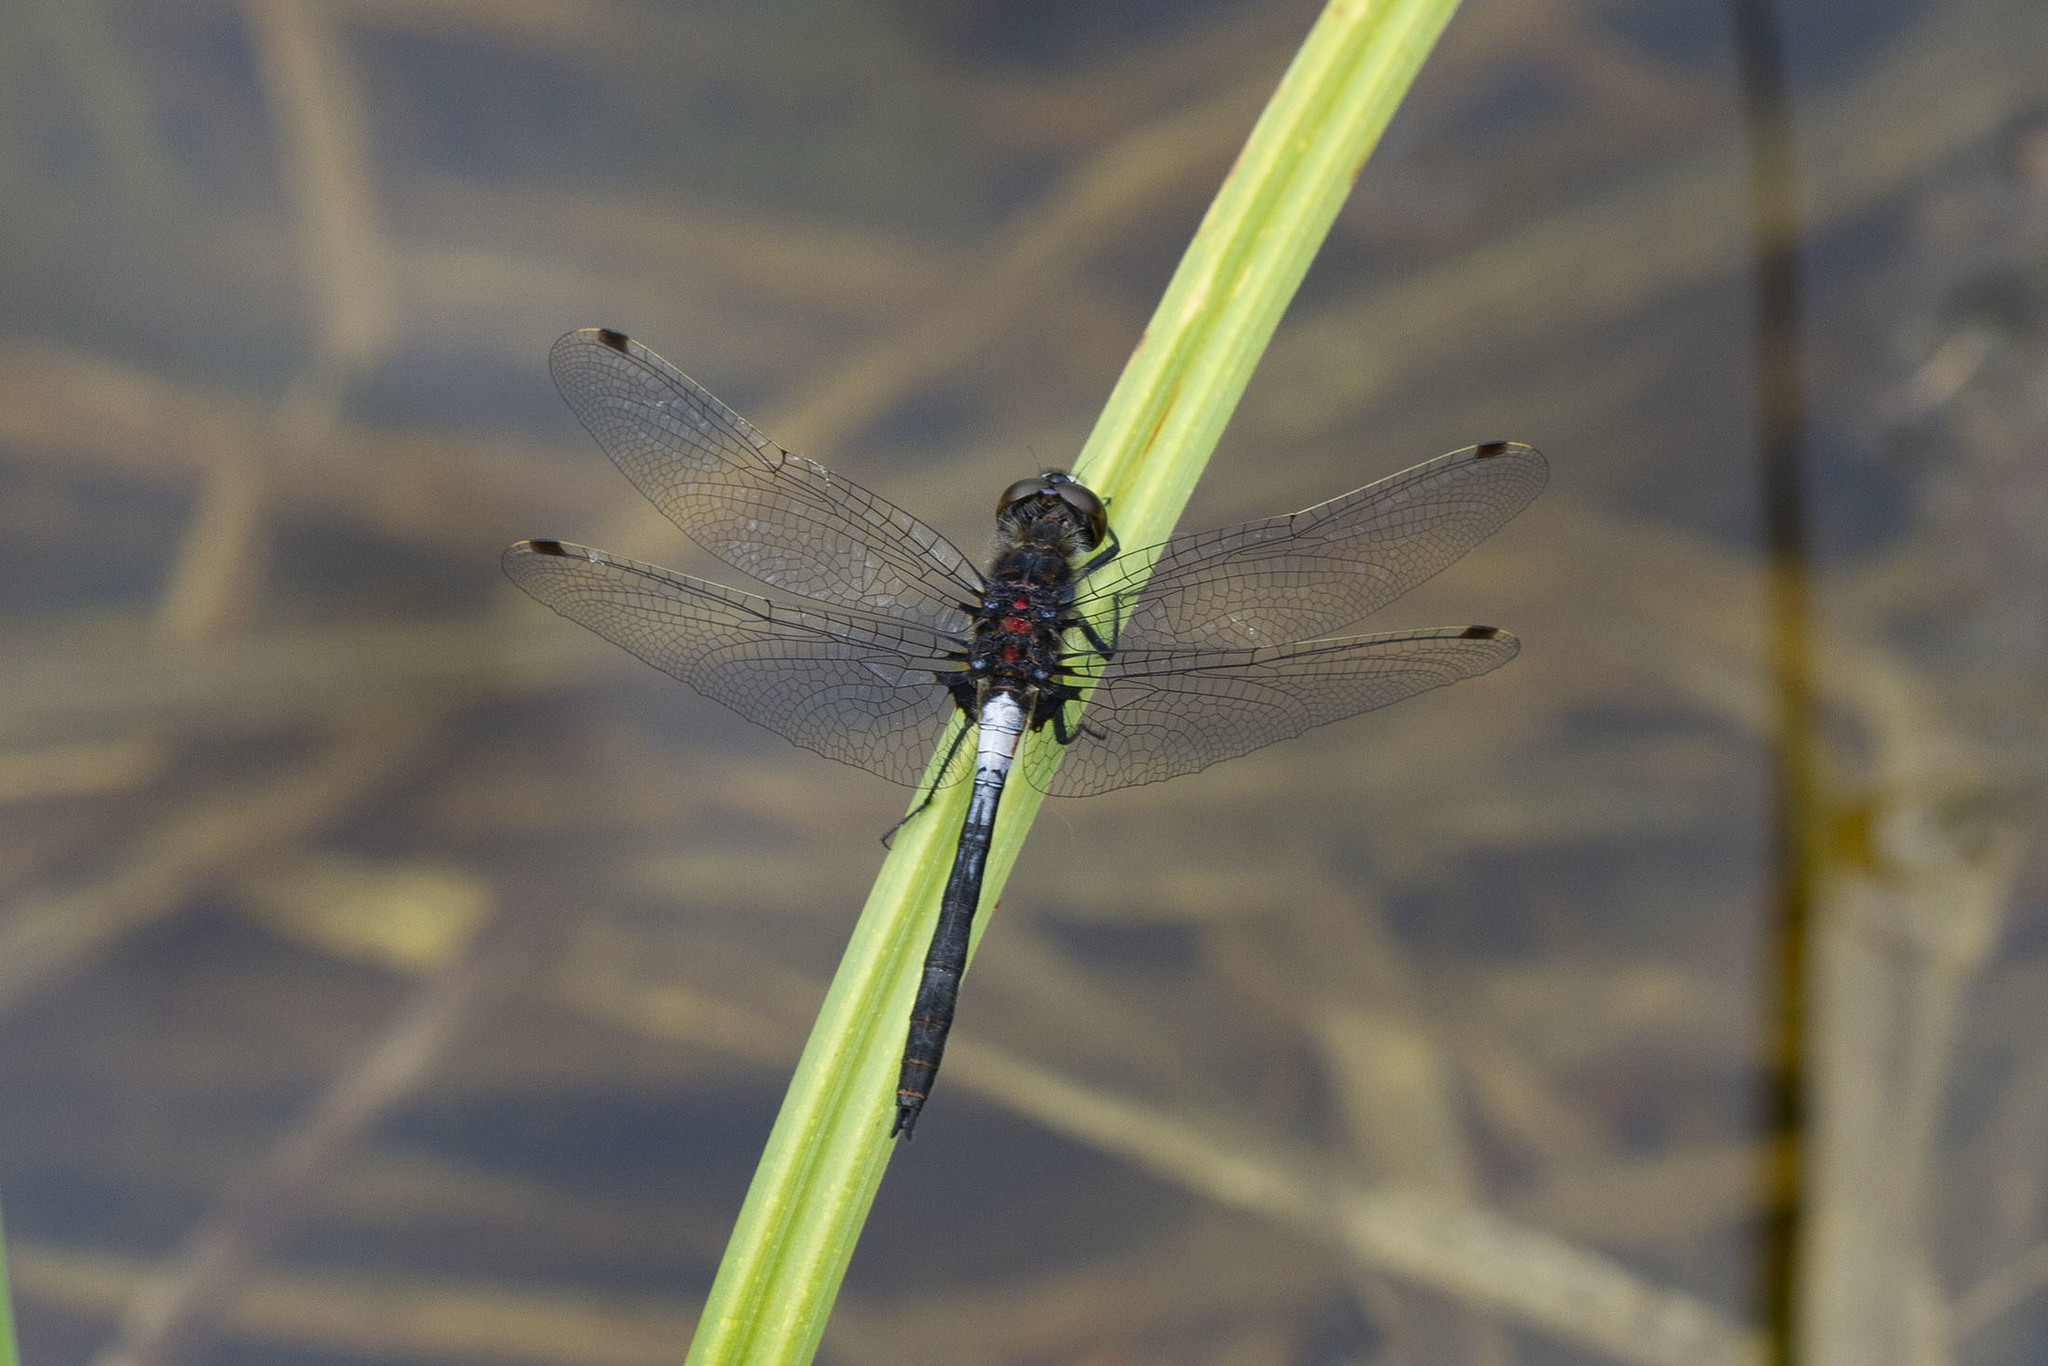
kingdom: Animalia
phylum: Arthropoda
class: Insecta
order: Odonata
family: Libellulidae
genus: Leucorrhinia
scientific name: Leucorrhinia proxima
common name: Belted whiteface
